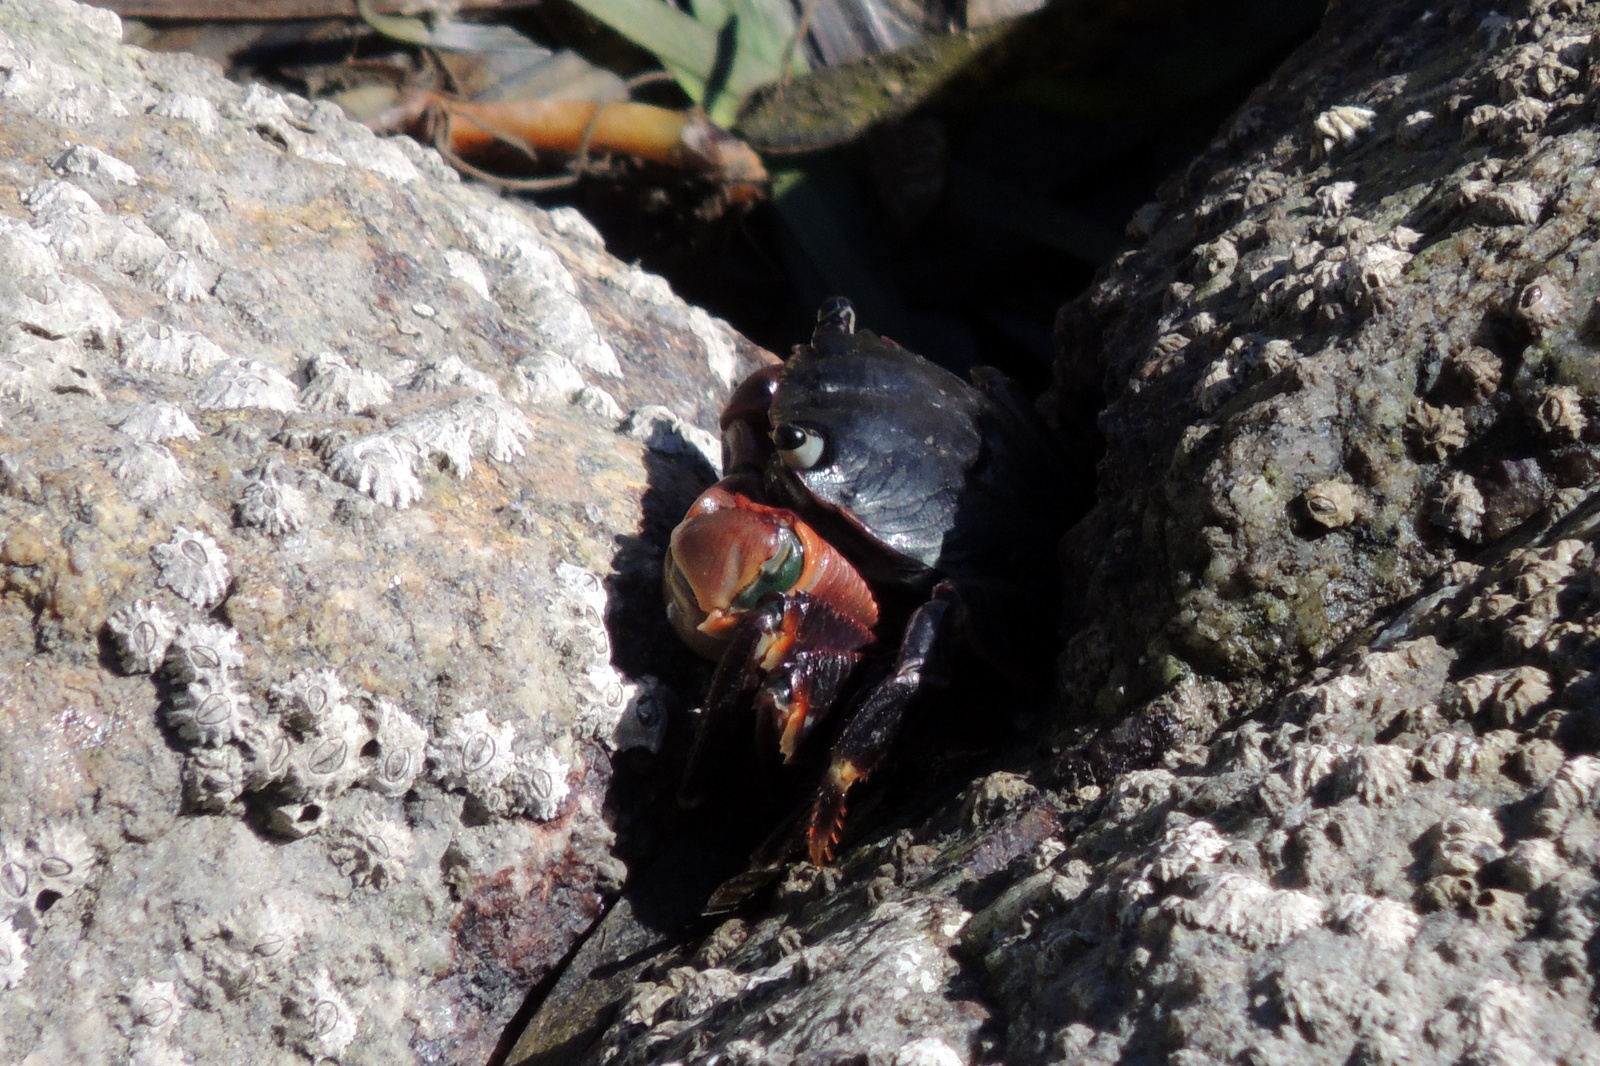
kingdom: Animalia
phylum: Arthropoda
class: Malacostraca
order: Decapoda
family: Grapsidae
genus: Pachygrapsus
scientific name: Pachygrapsus crassipes
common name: Striped shore crab
